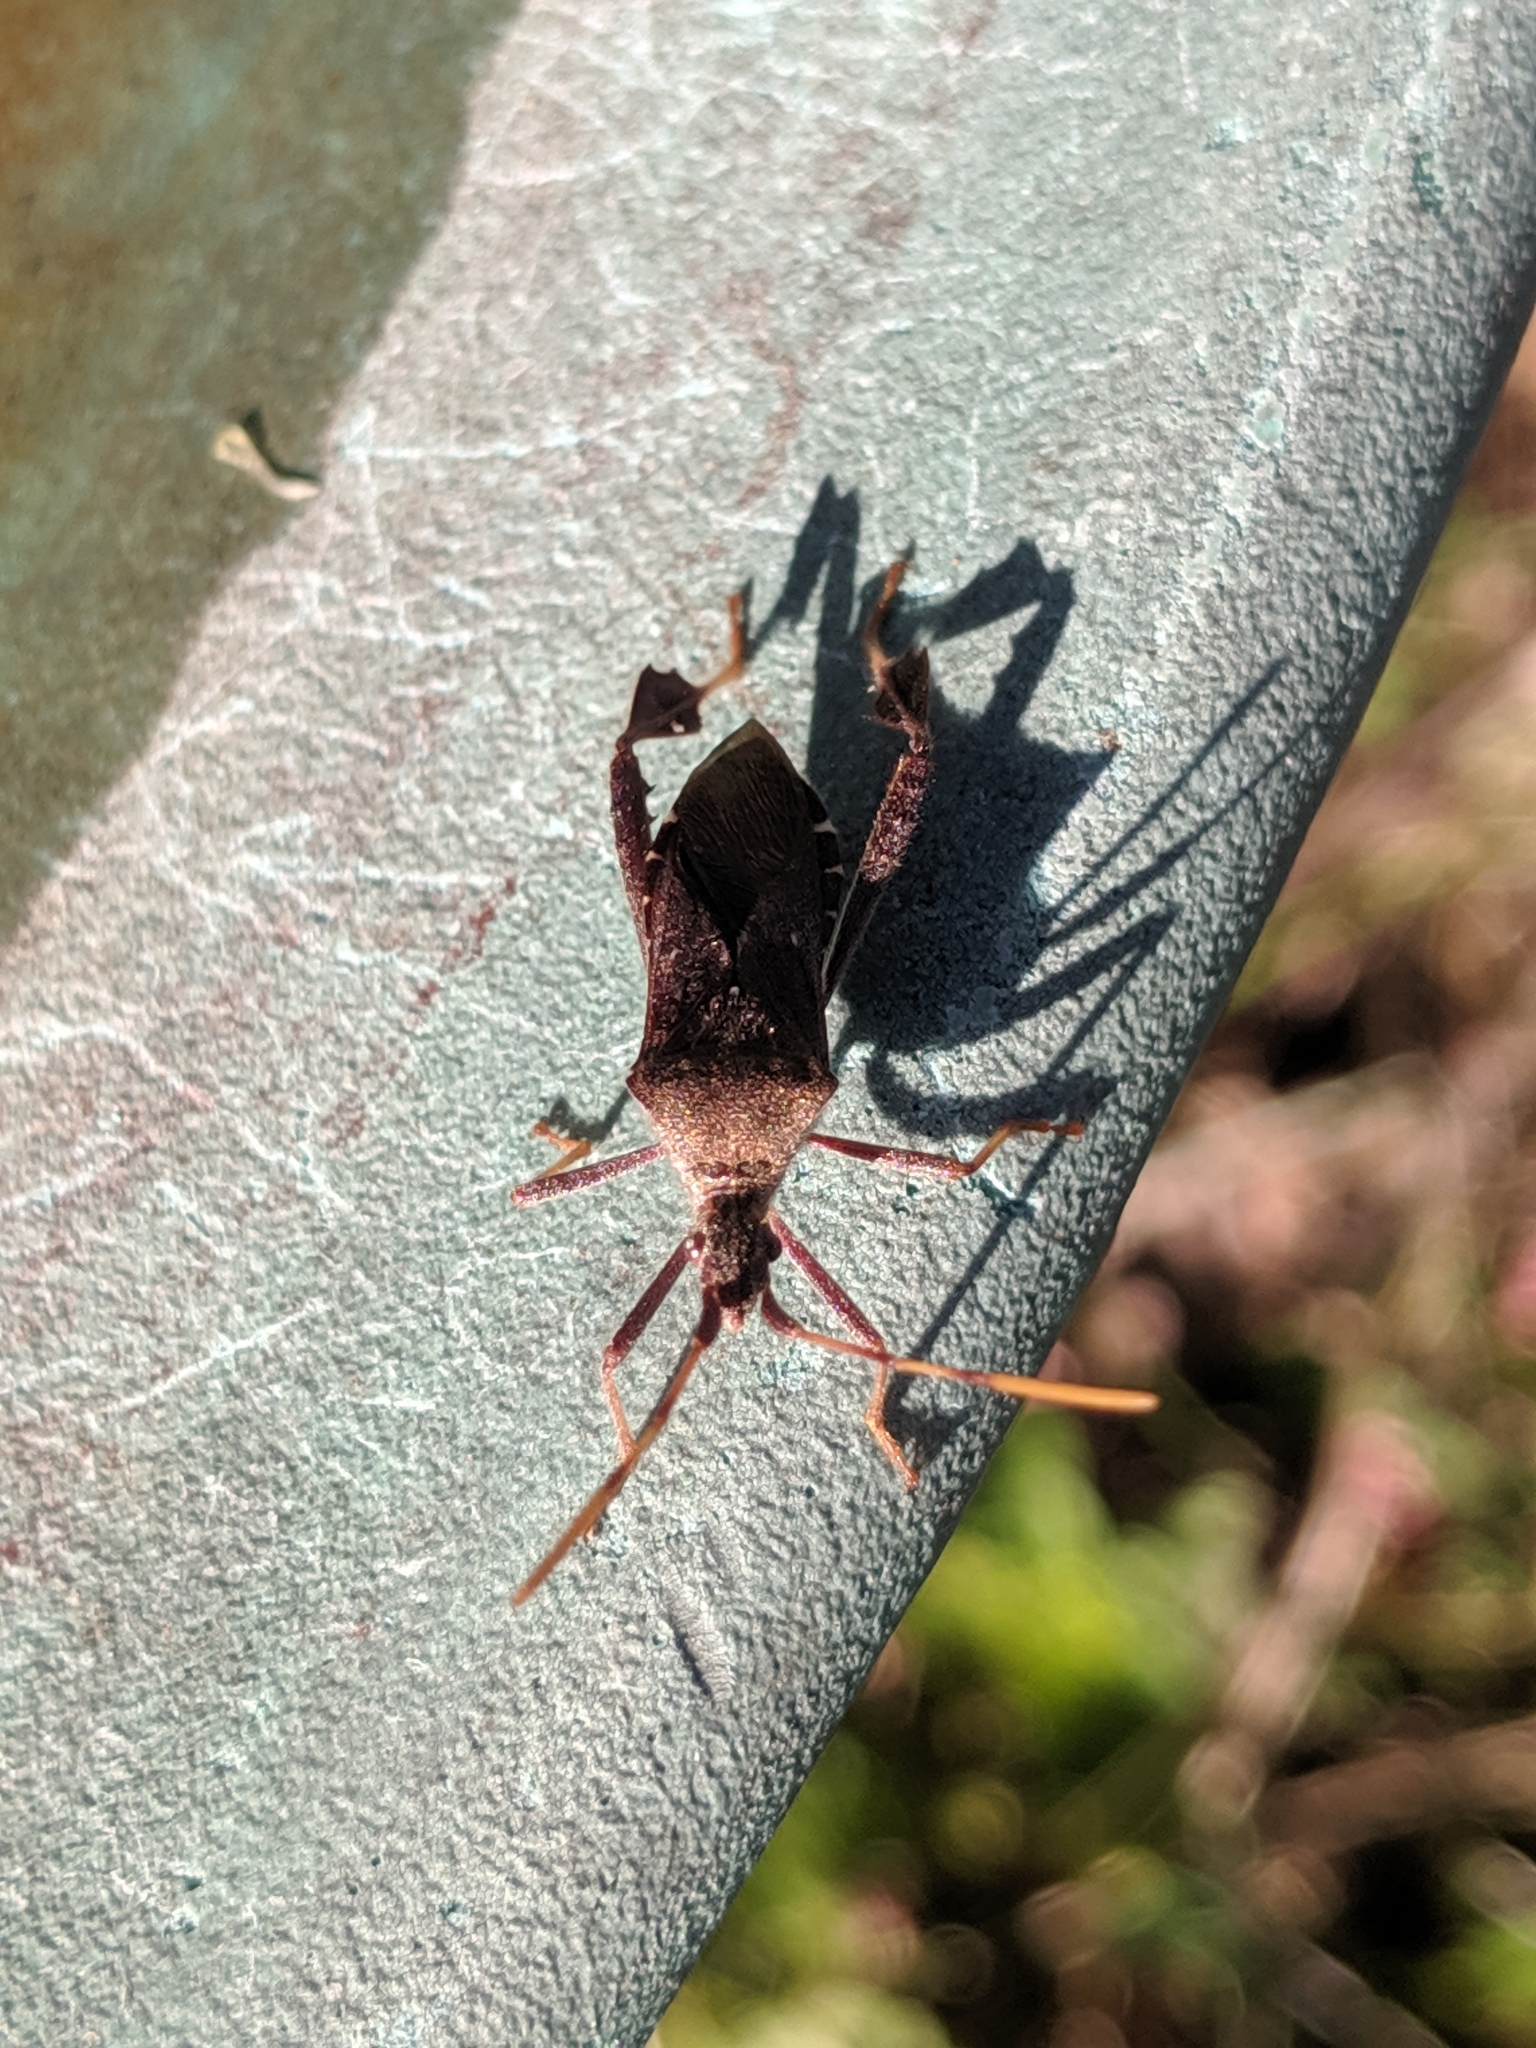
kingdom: Animalia
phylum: Arthropoda
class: Insecta
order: Hemiptera
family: Coreidae
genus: Leptoglossus
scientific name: Leptoglossus oppositus
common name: Northern leaf-footed bug
